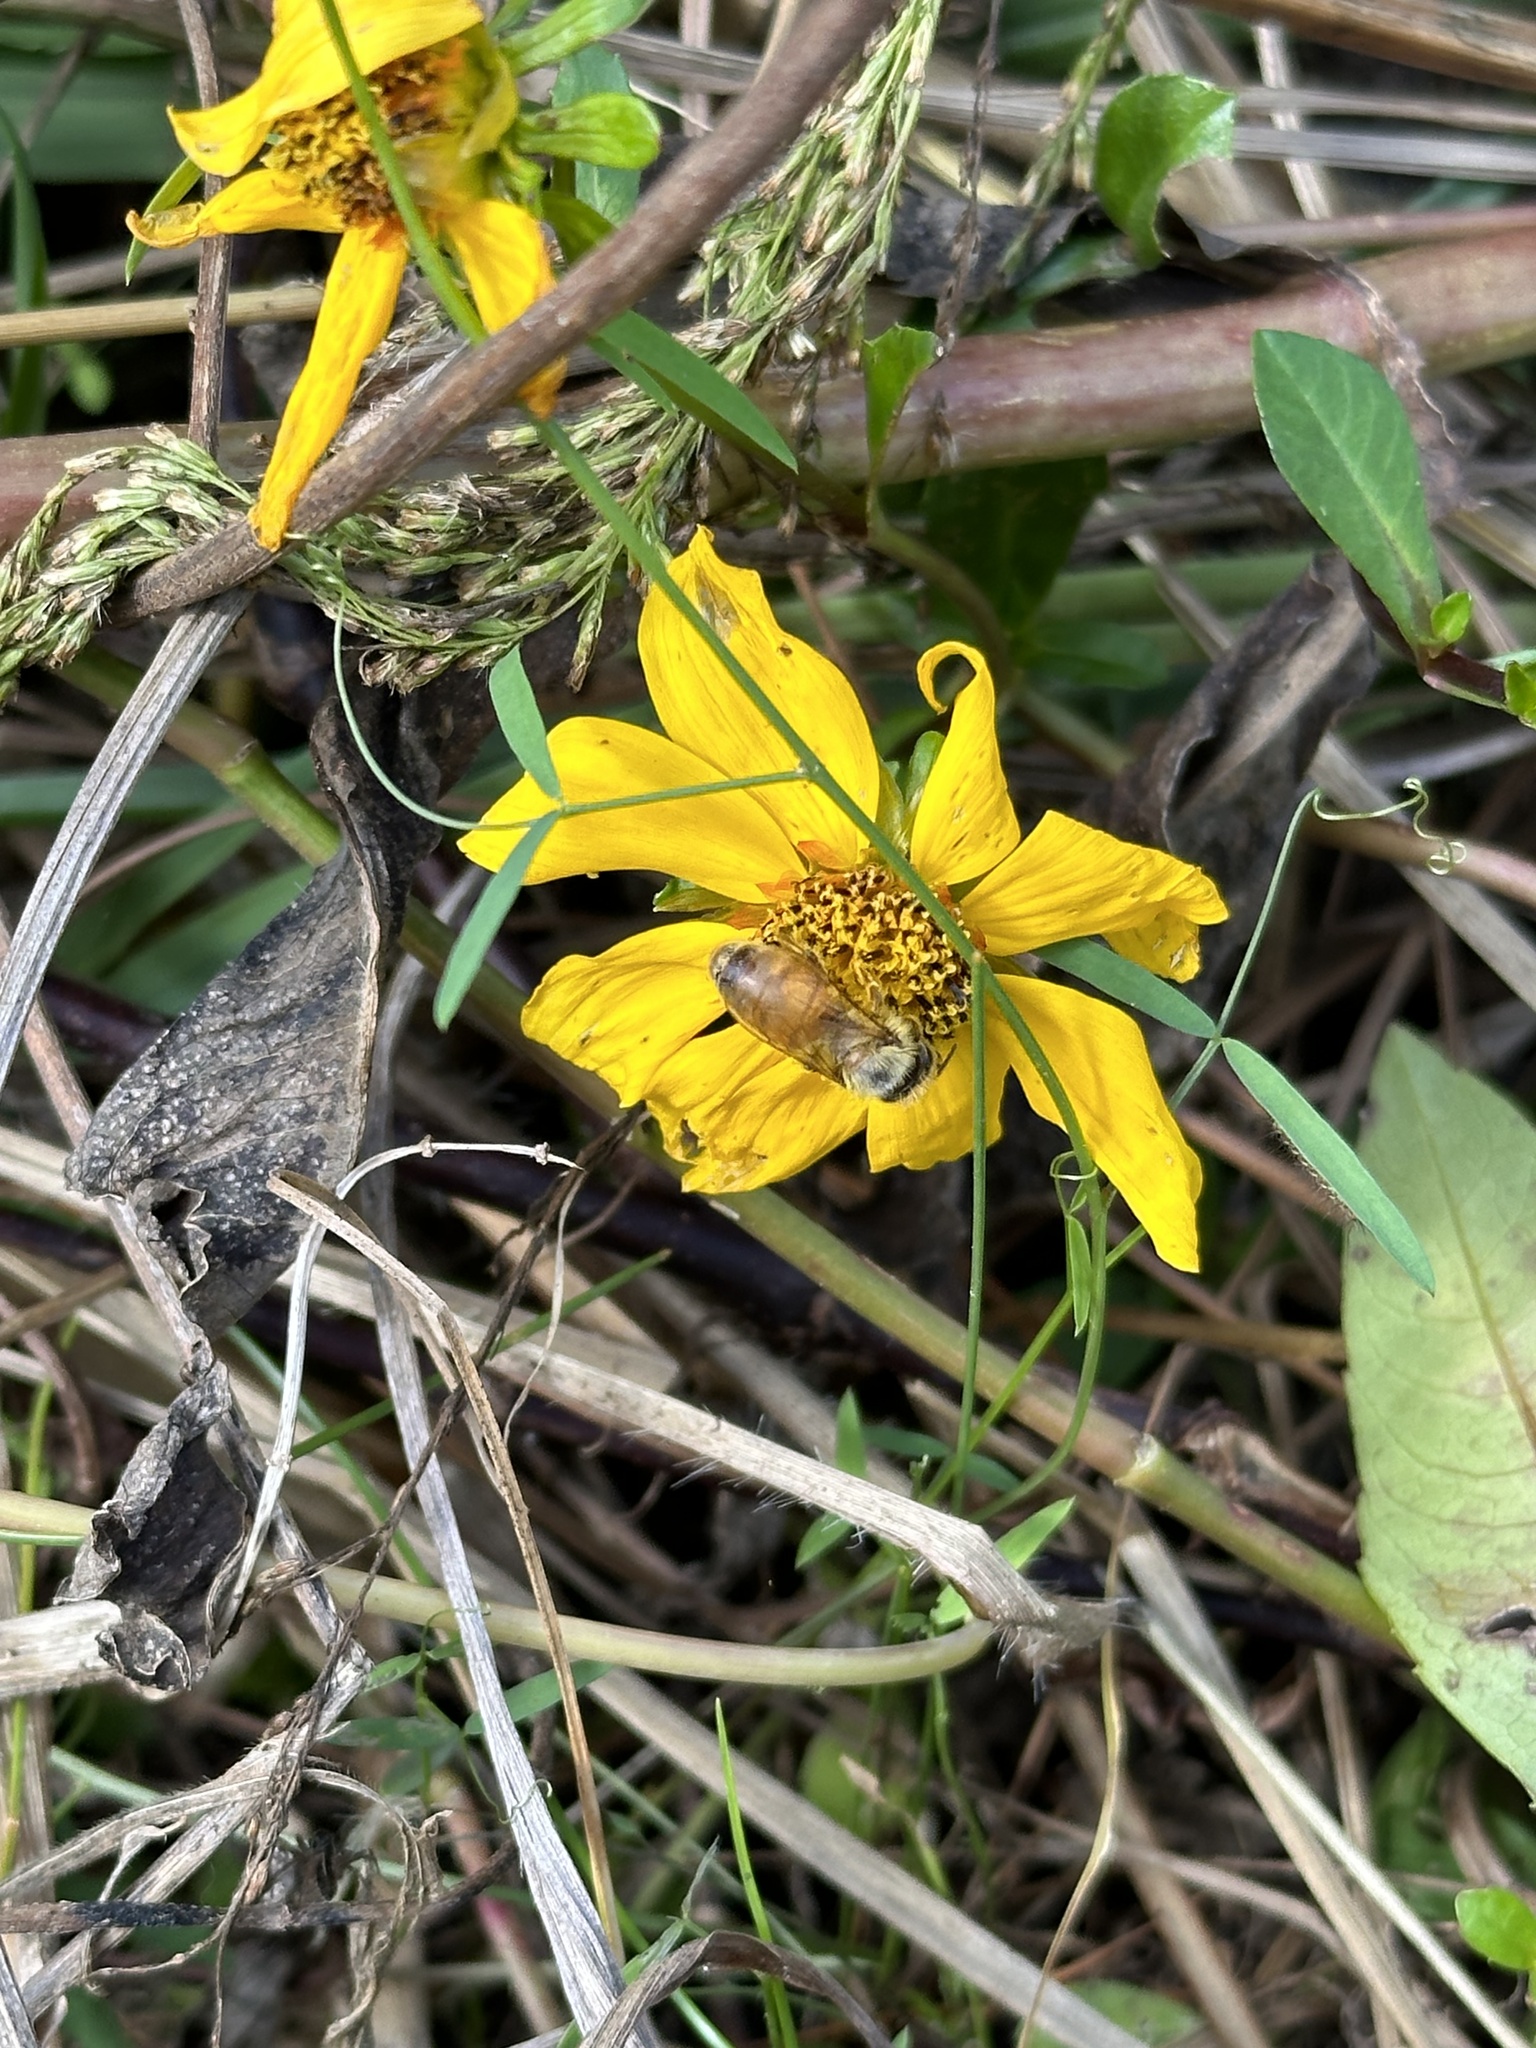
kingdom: Animalia
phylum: Arthropoda
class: Insecta
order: Hymenoptera
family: Apidae
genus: Apis
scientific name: Apis mellifera
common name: Honey bee
